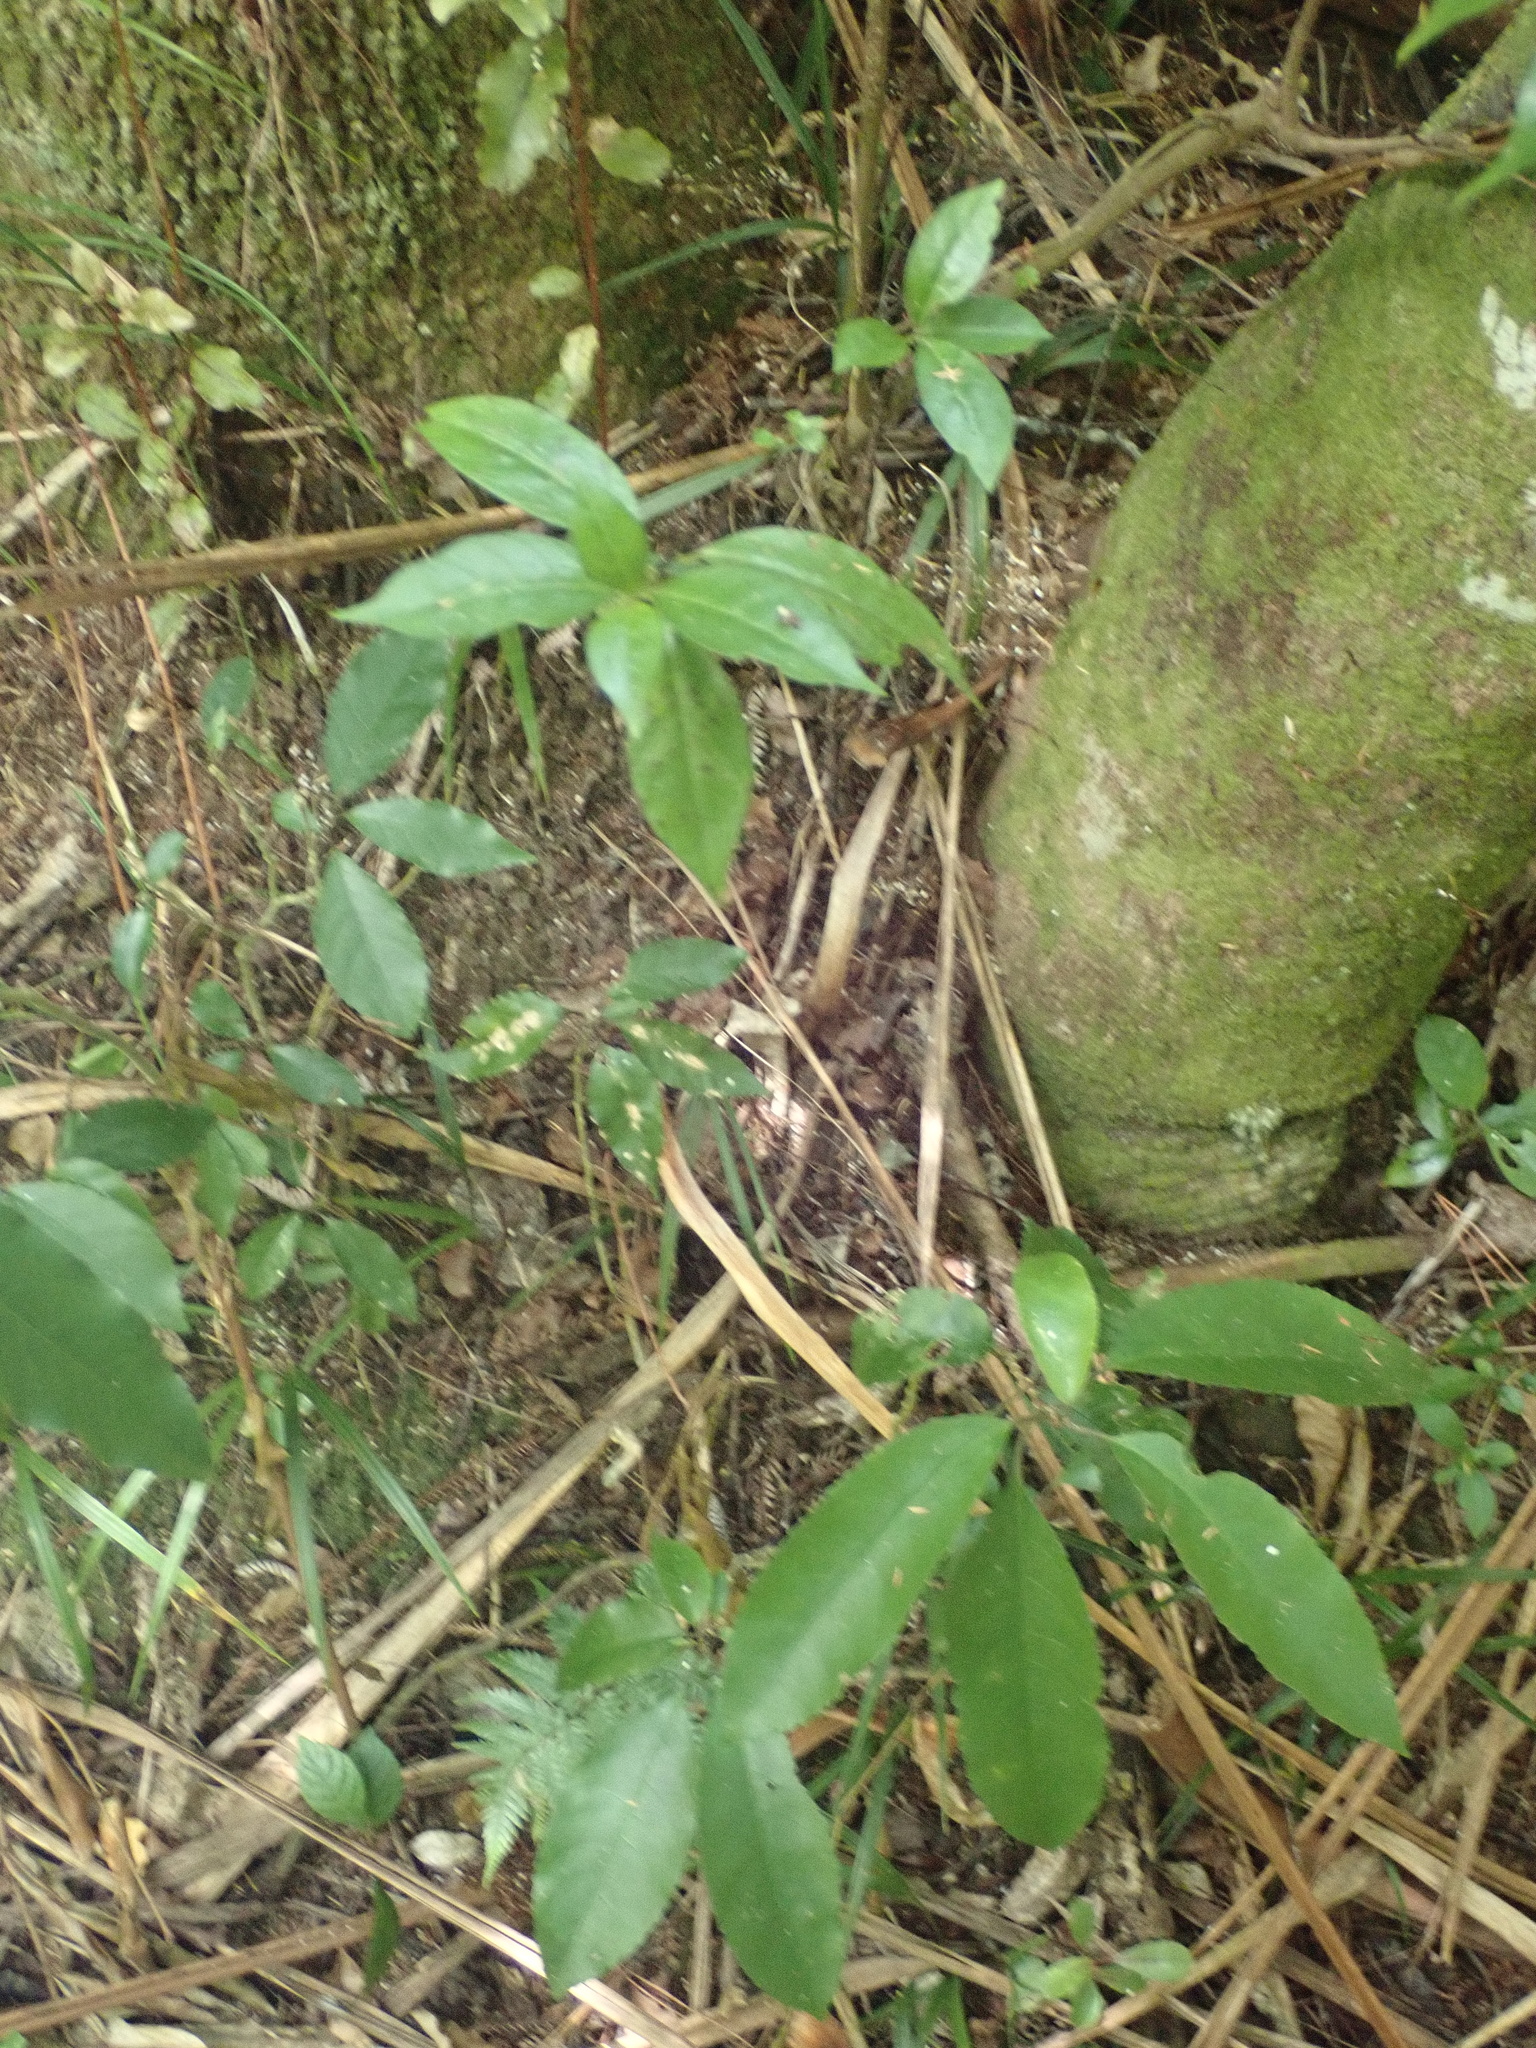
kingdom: Plantae
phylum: Tracheophyta
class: Magnoliopsida
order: Malpighiales
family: Violaceae
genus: Melicytus
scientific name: Melicytus ramiflorus
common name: Mahoe
